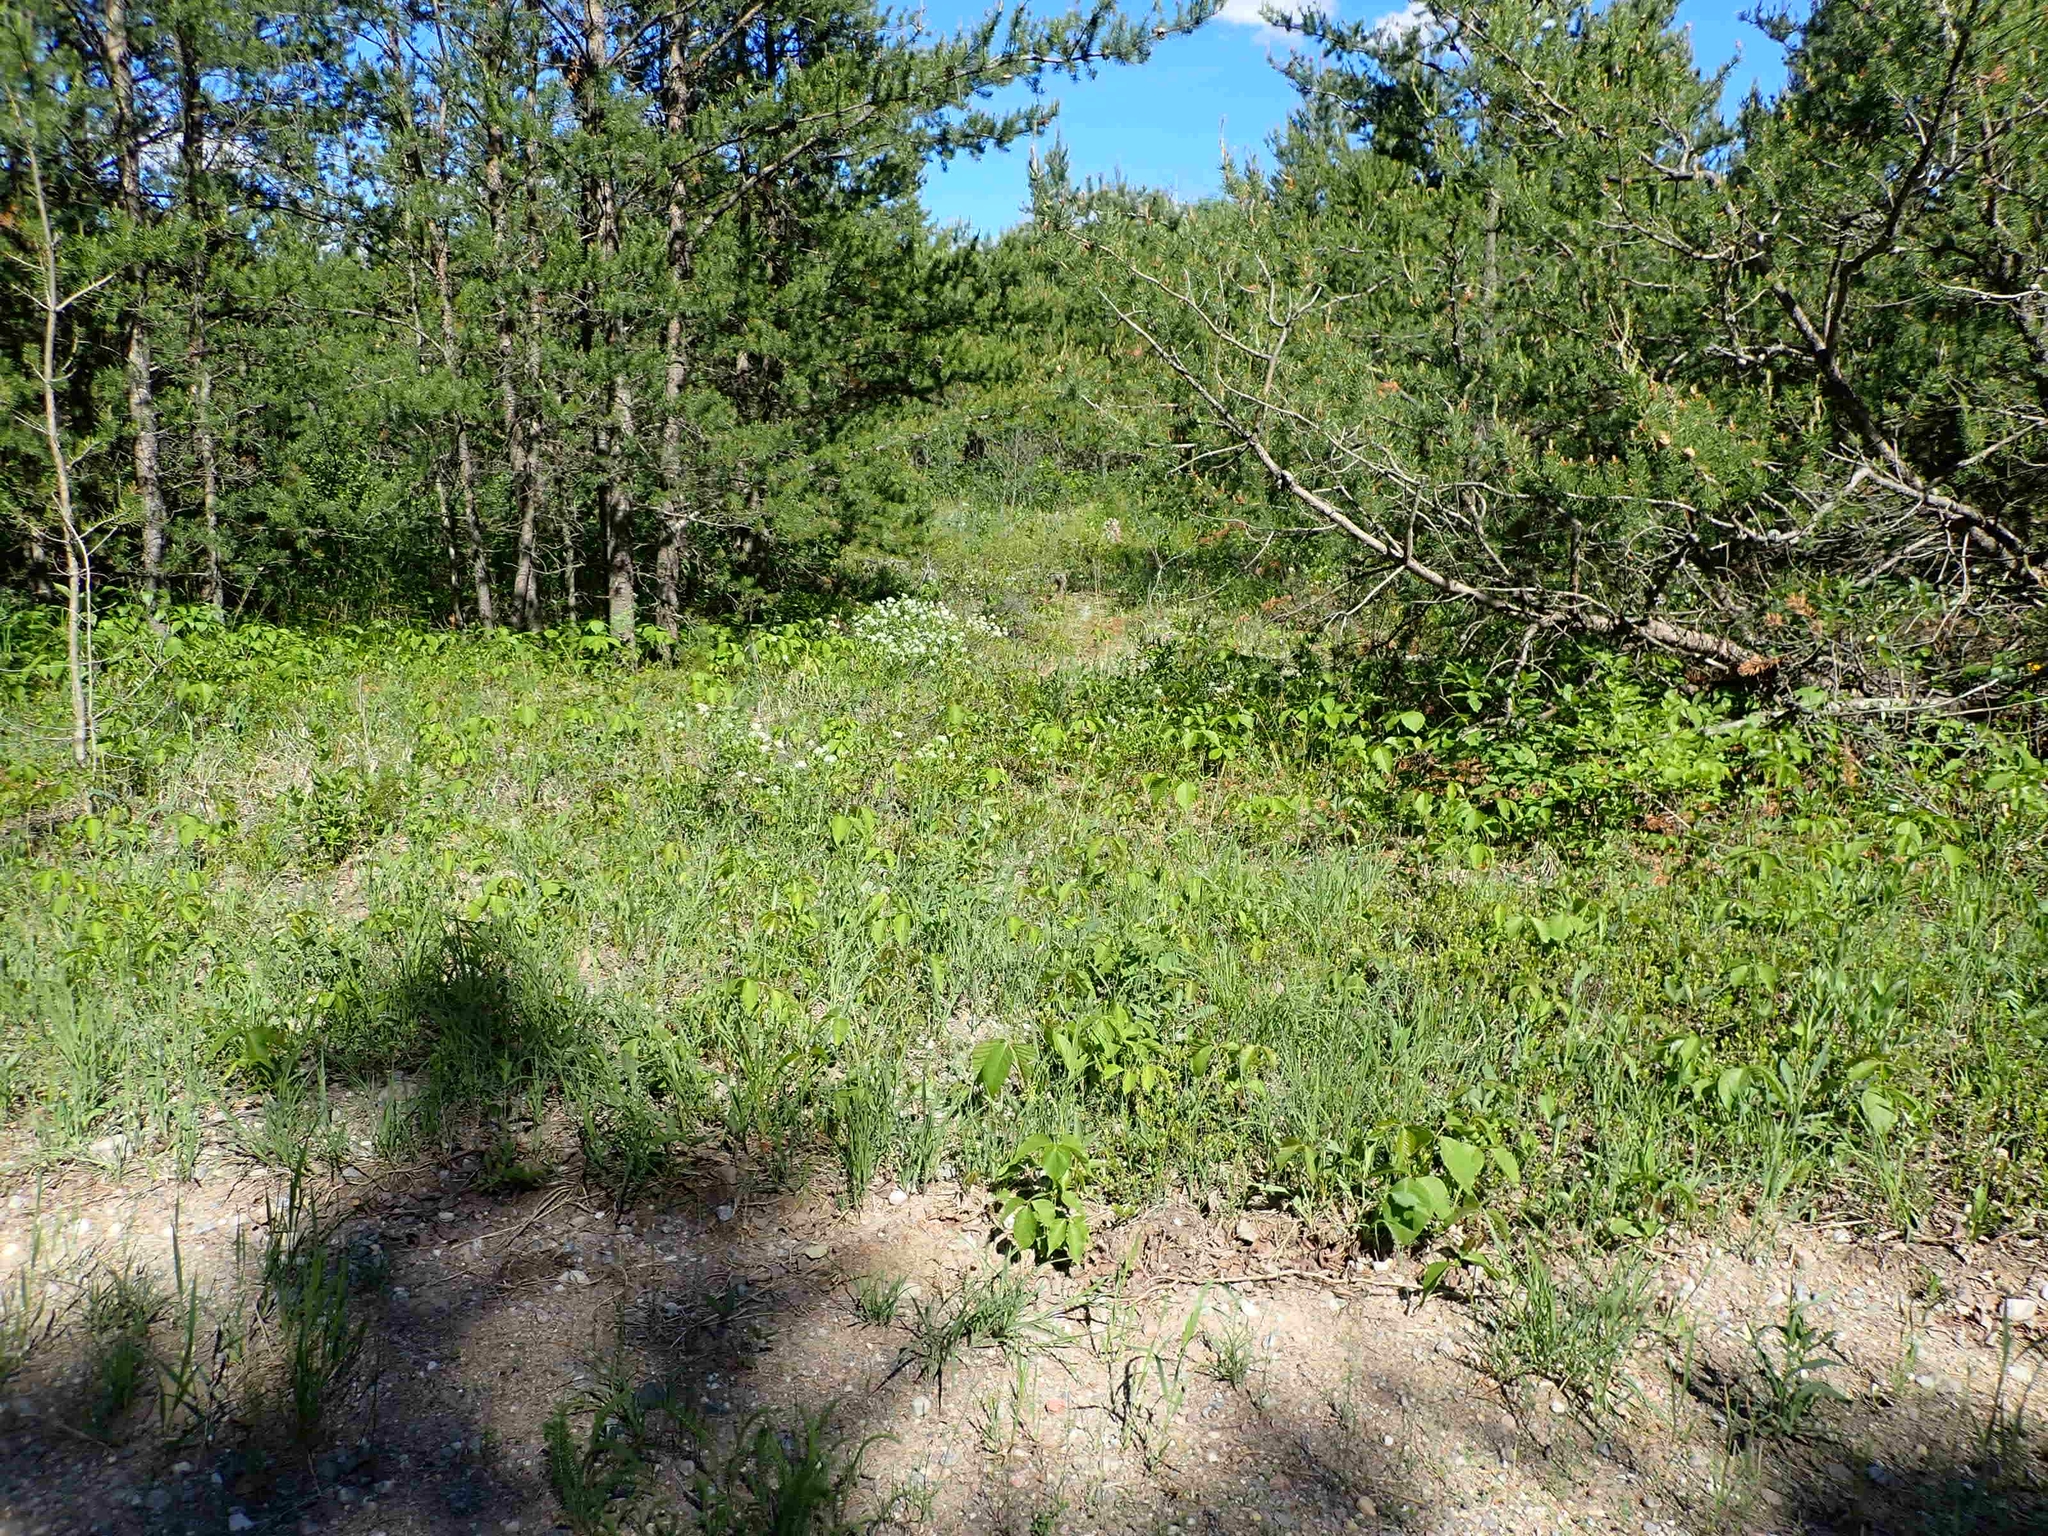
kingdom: Plantae
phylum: Tracheophyta
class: Magnoliopsida
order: Rosales
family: Rhamnaceae
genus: Ceanothus
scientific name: Ceanothus herbaceus
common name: Inland ceanothus
